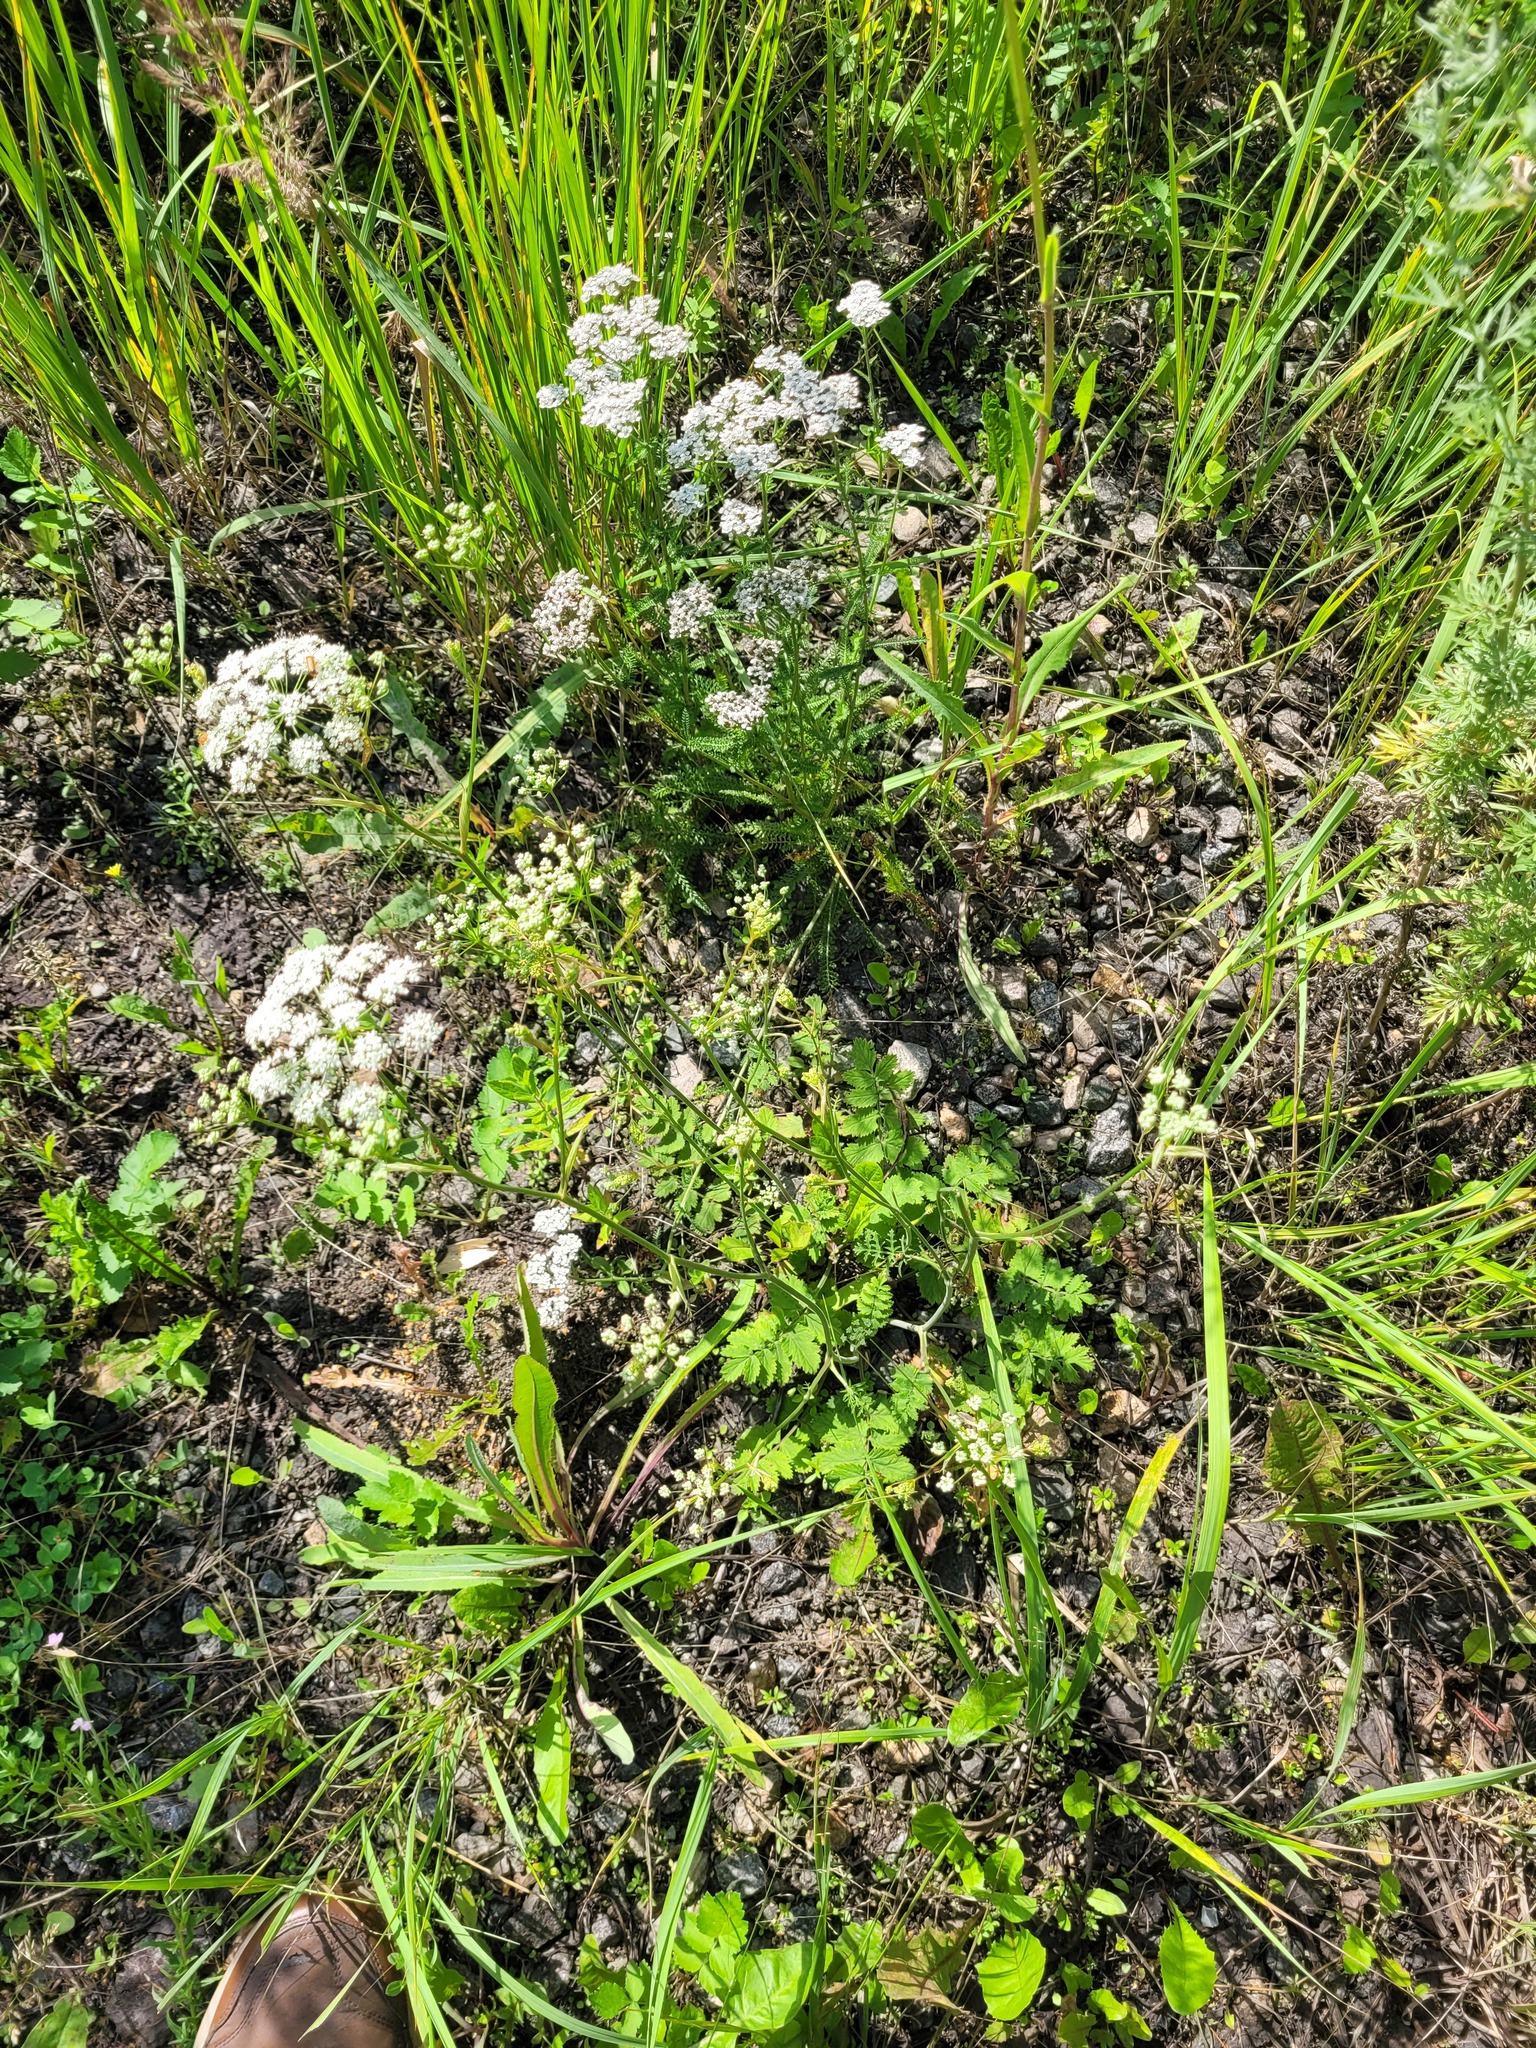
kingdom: Plantae
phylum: Tracheophyta
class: Magnoliopsida
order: Apiales
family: Apiaceae
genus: Pimpinella
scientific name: Pimpinella saxifraga
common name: Burnet-saxifrage
